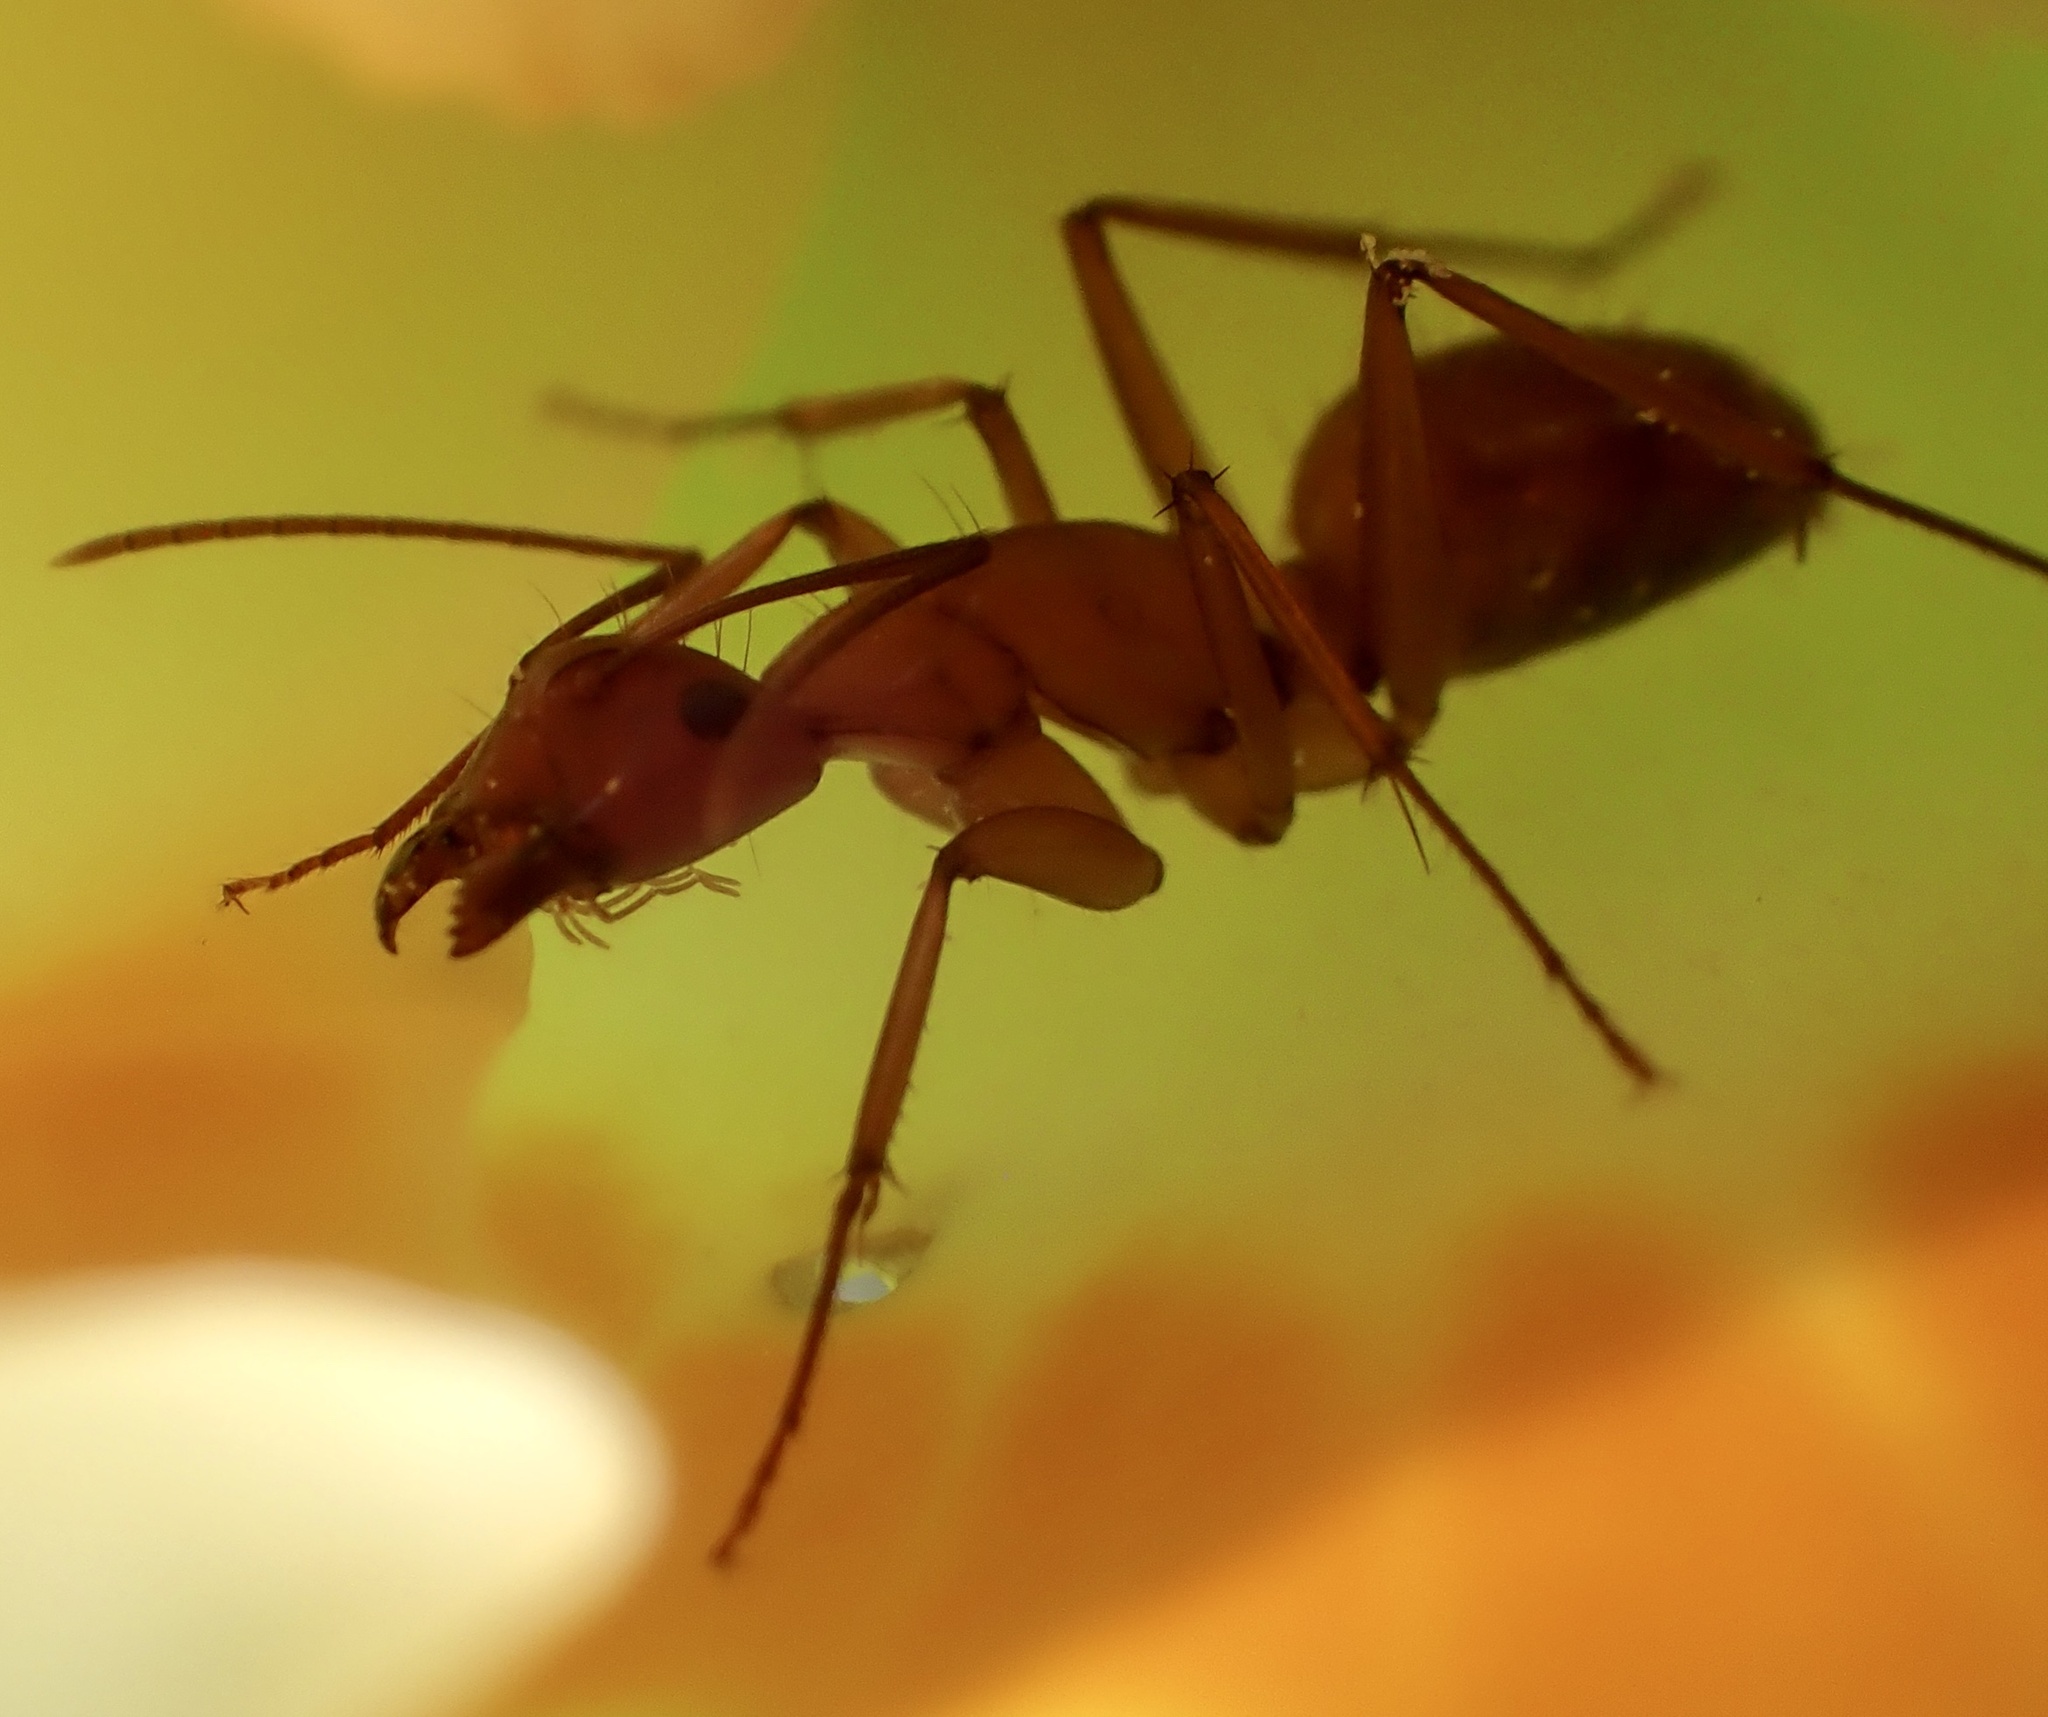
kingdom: Animalia
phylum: Arthropoda
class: Insecta
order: Hymenoptera
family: Formicidae
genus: Camponotus
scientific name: Camponotus castaneus
